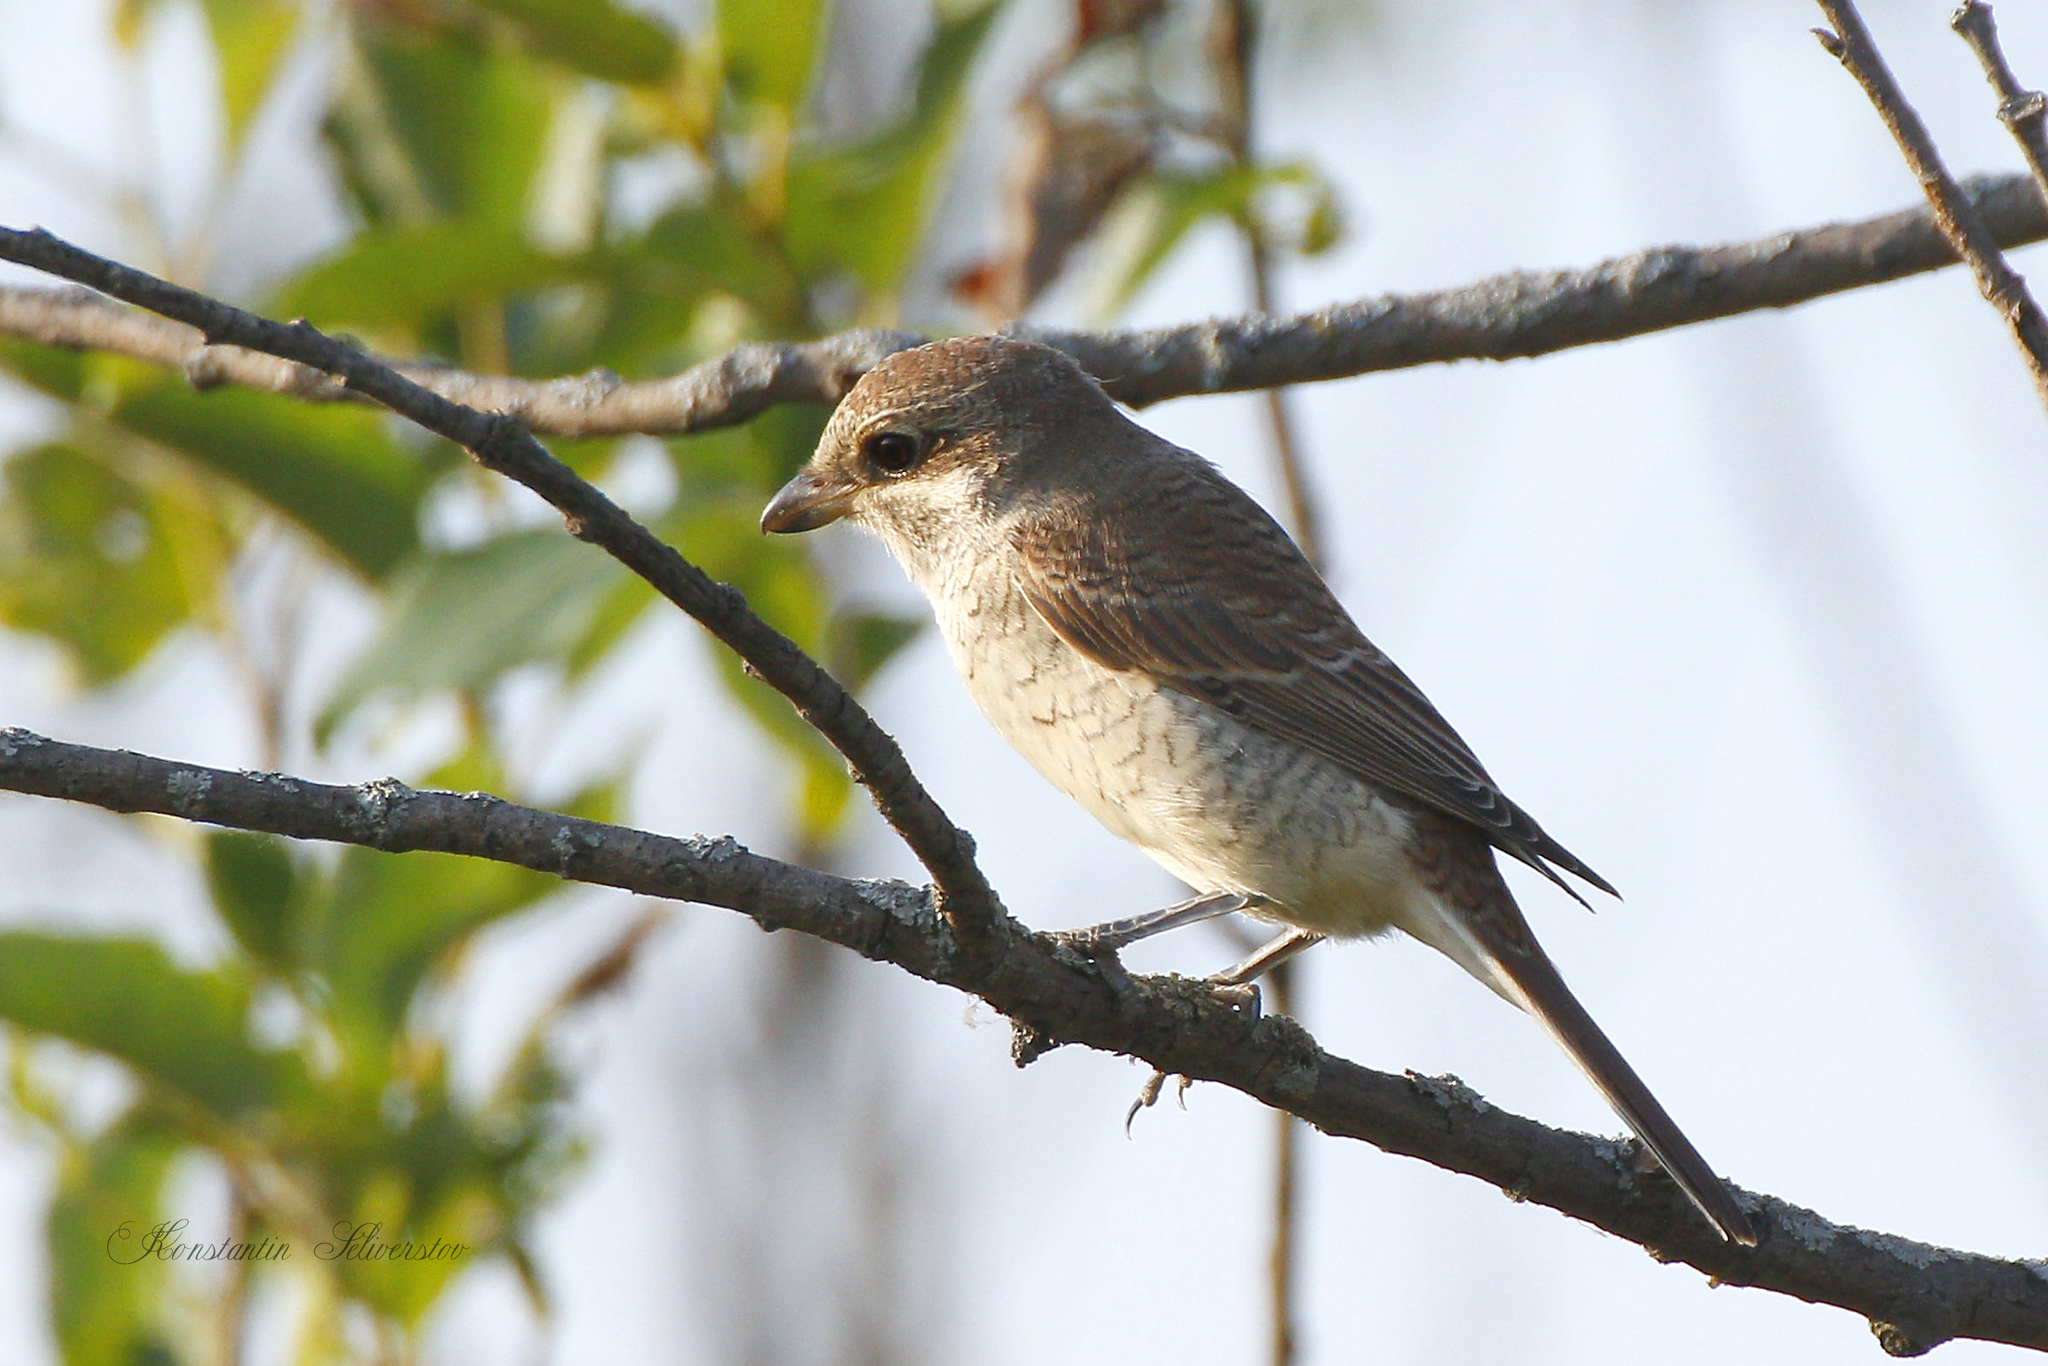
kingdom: Animalia
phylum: Chordata
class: Aves
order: Passeriformes
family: Laniidae
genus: Lanius
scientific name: Lanius collurio
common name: Red-backed shrike
